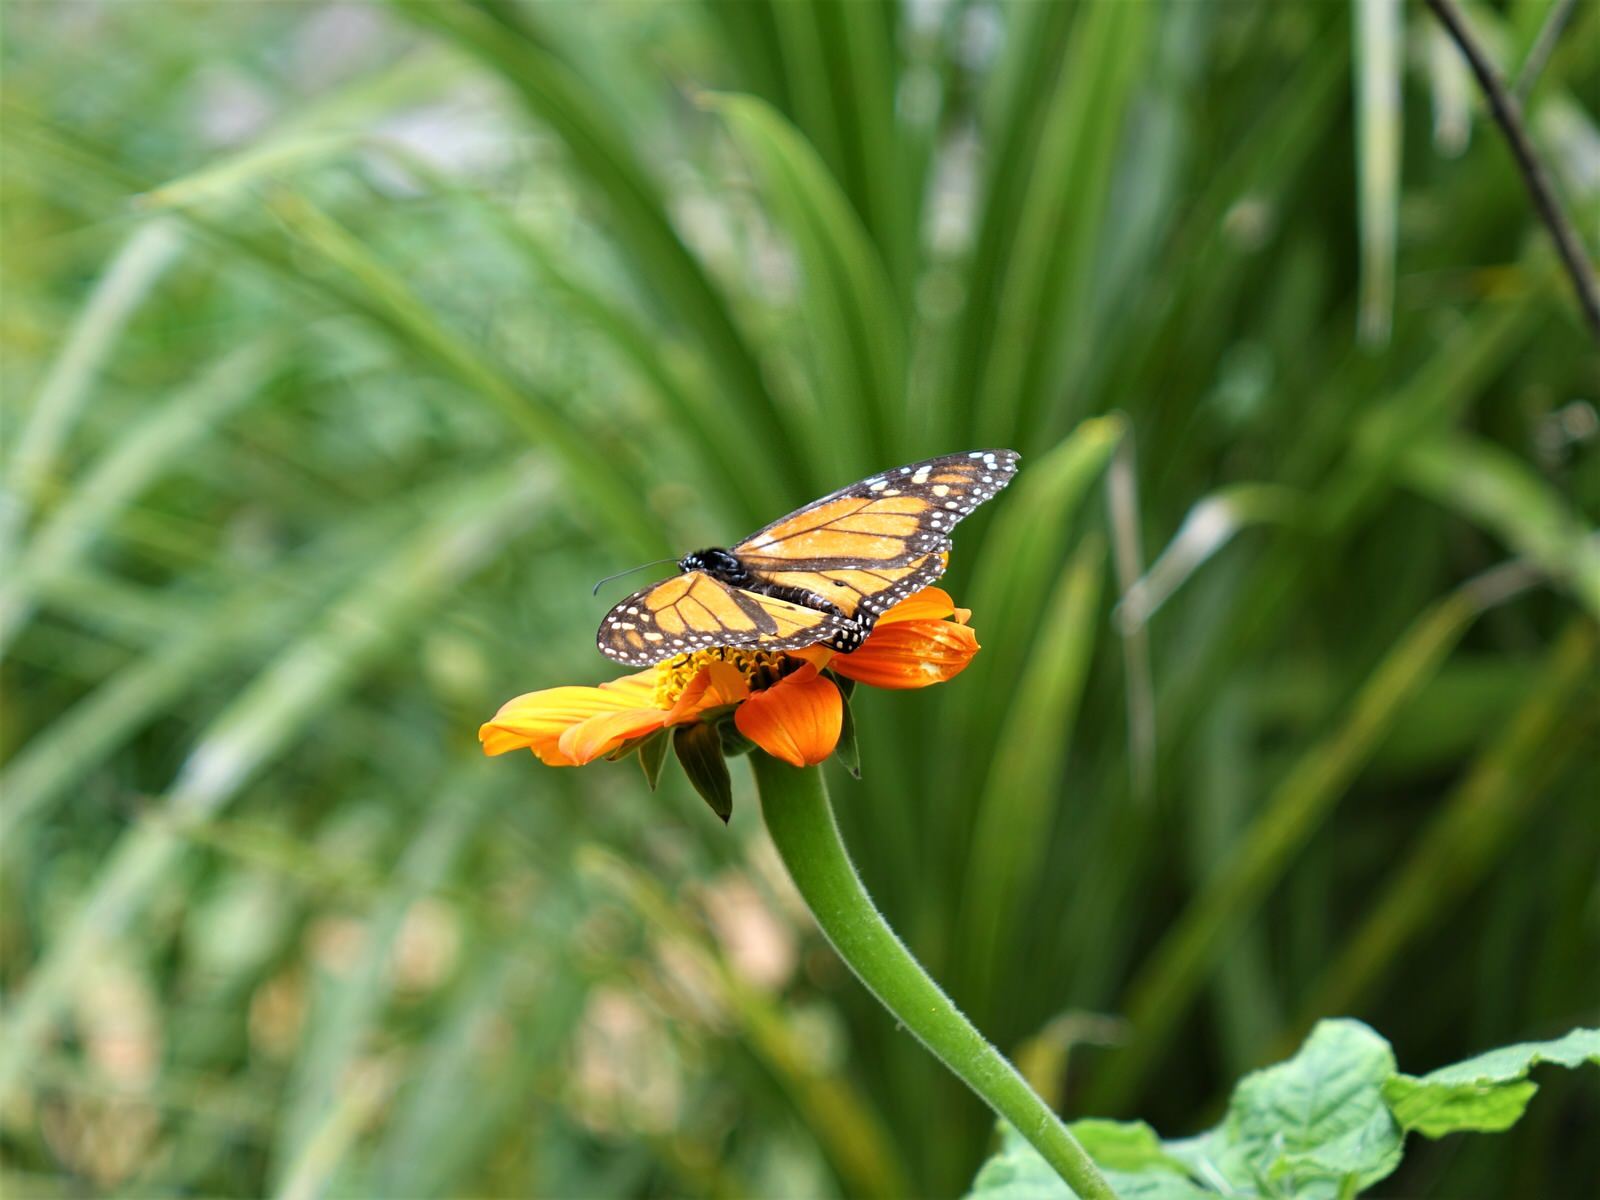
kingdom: Animalia
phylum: Arthropoda
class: Insecta
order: Lepidoptera
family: Nymphalidae
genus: Danaus
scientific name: Danaus plexippus
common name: Monarch
